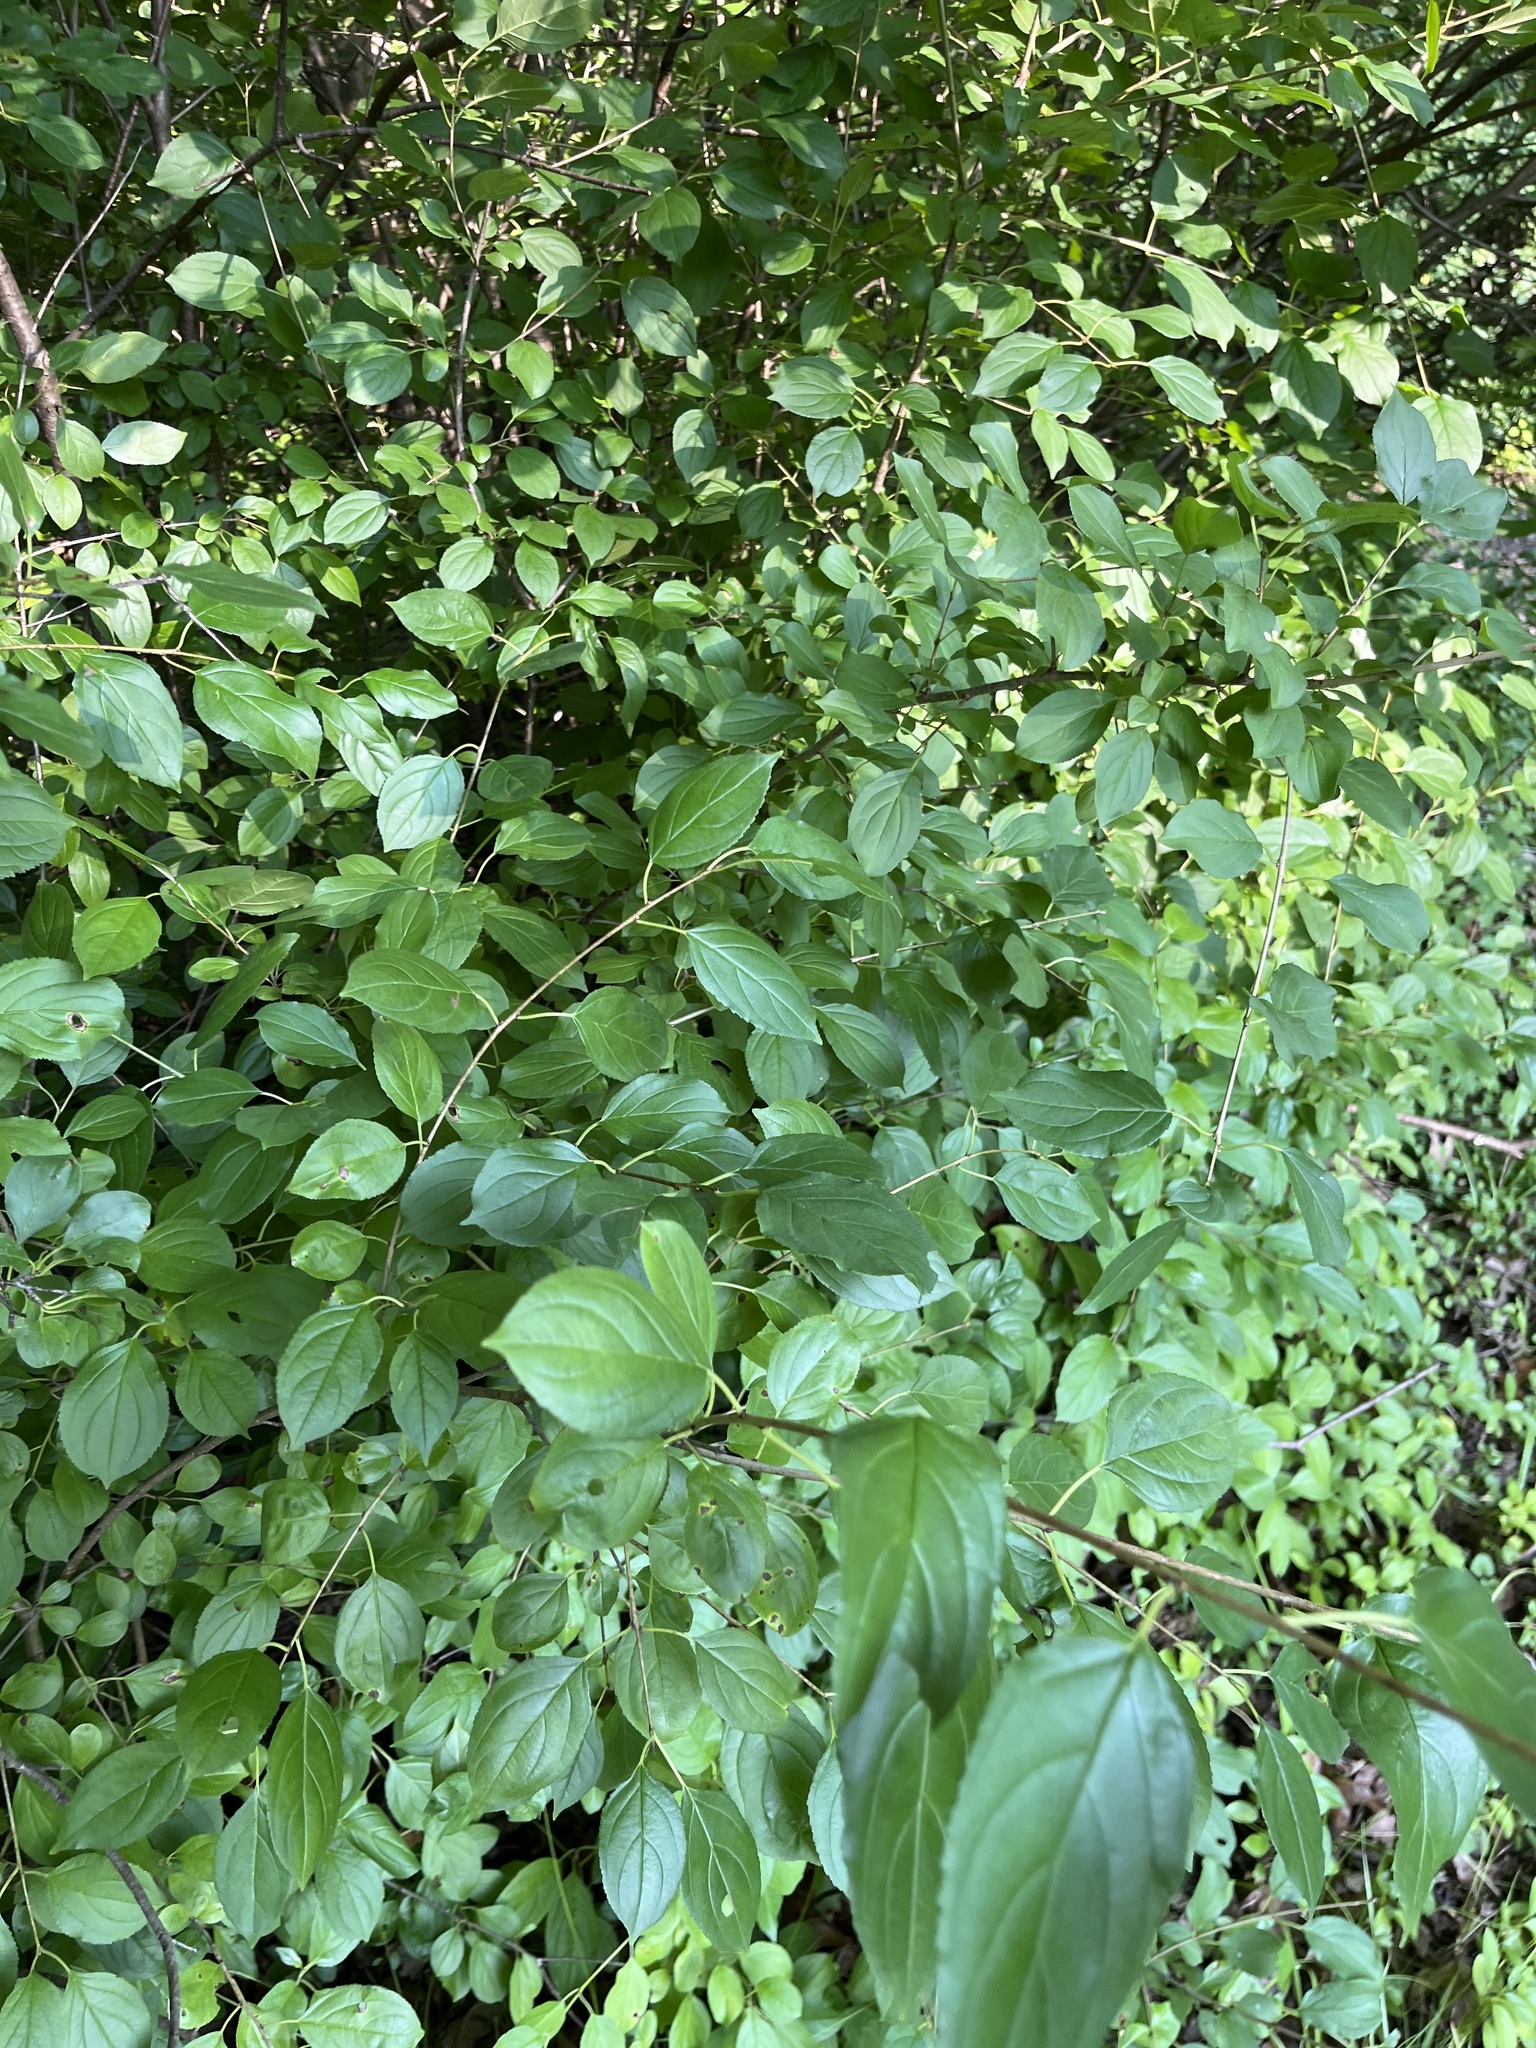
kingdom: Plantae
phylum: Tracheophyta
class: Magnoliopsida
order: Rosales
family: Rhamnaceae
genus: Rhamnus
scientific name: Rhamnus cathartica
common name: Common buckthorn
